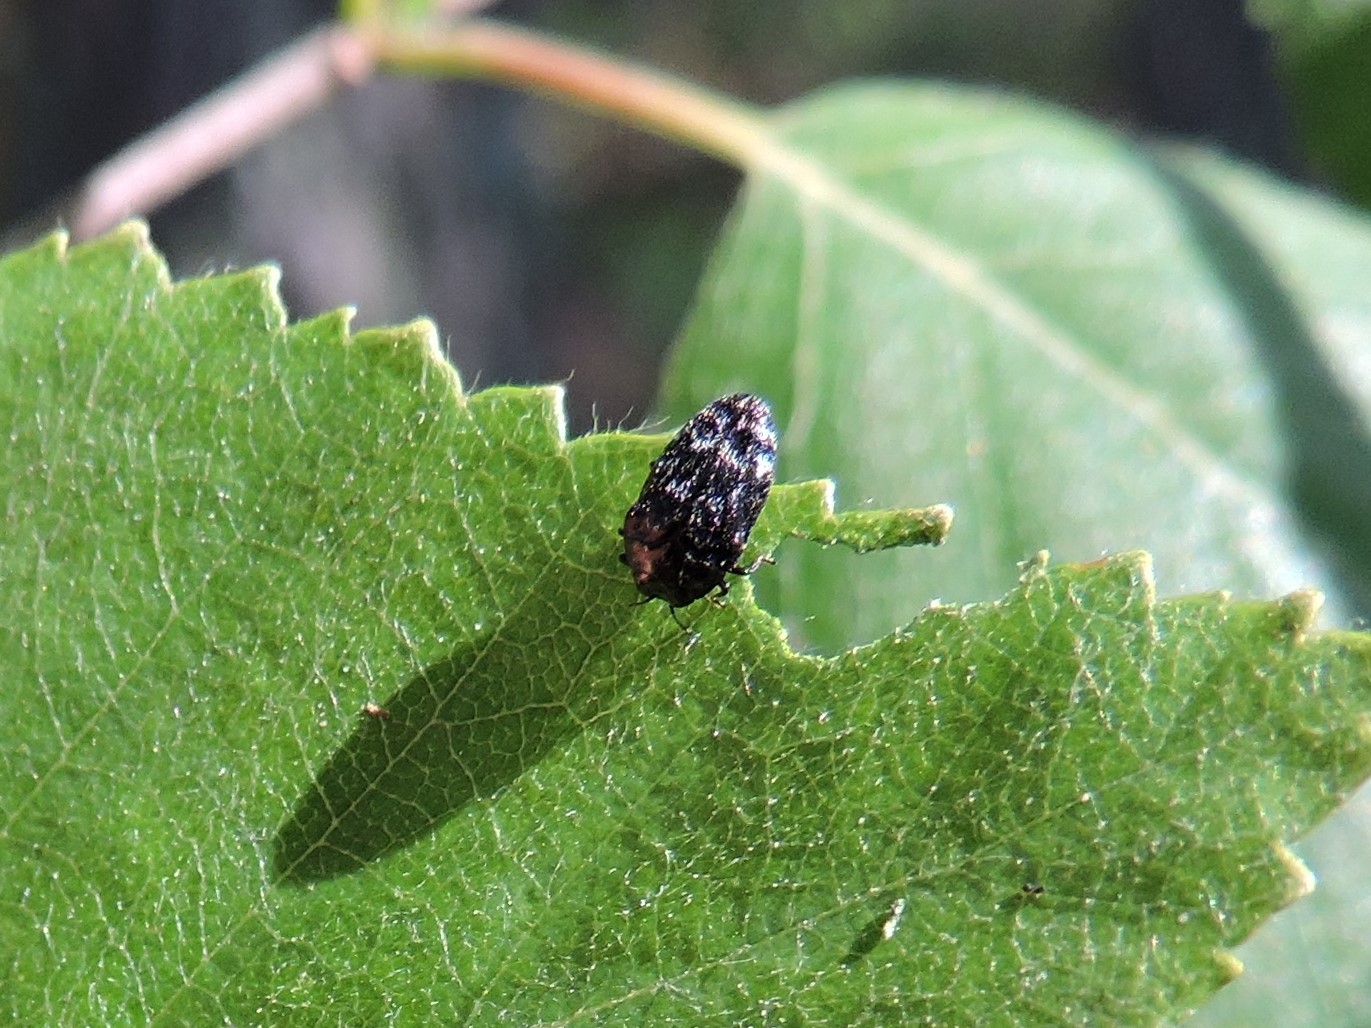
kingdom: Animalia
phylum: Arthropoda
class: Insecta
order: Coleoptera
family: Buprestidae
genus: Trachys
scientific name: Trachys minutus
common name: Metallic wood-boring beetle
